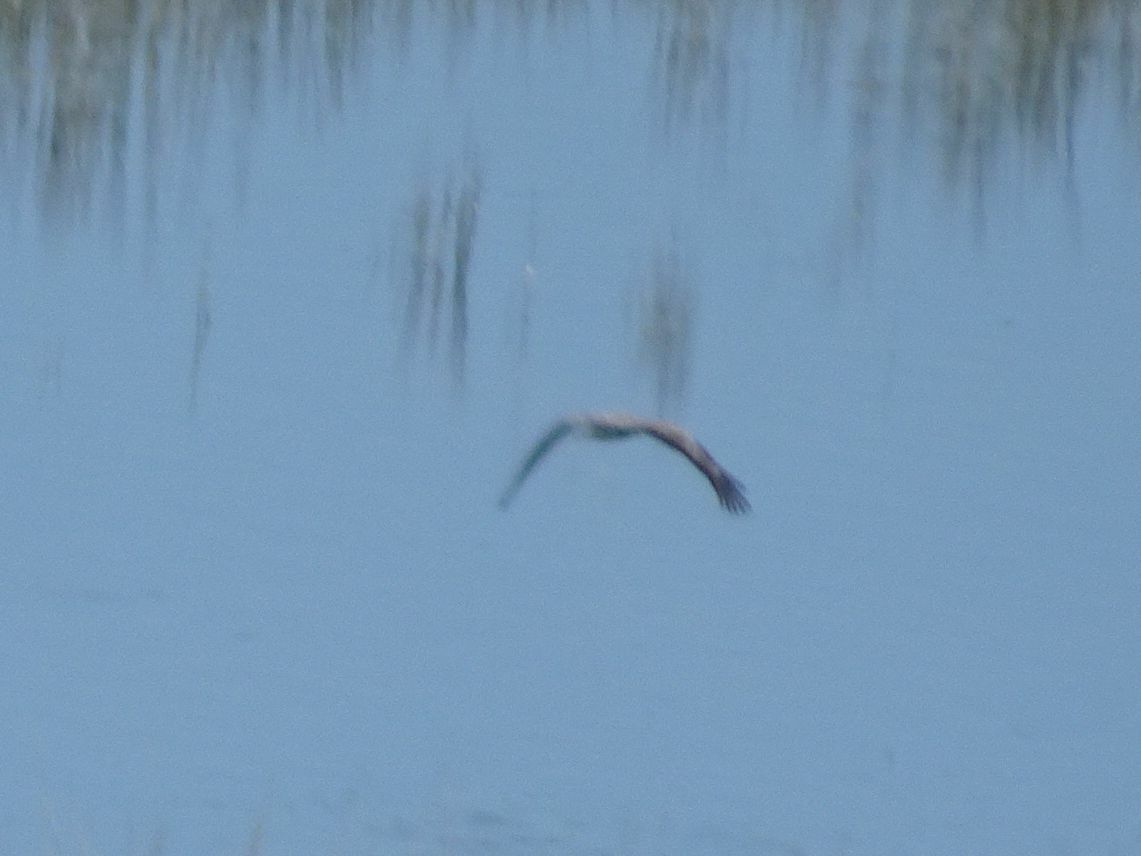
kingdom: Animalia
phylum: Chordata
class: Aves
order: Accipitriformes
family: Accipitridae
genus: Polyboroides
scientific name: Polyboroides typus
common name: African harrier-hawk
